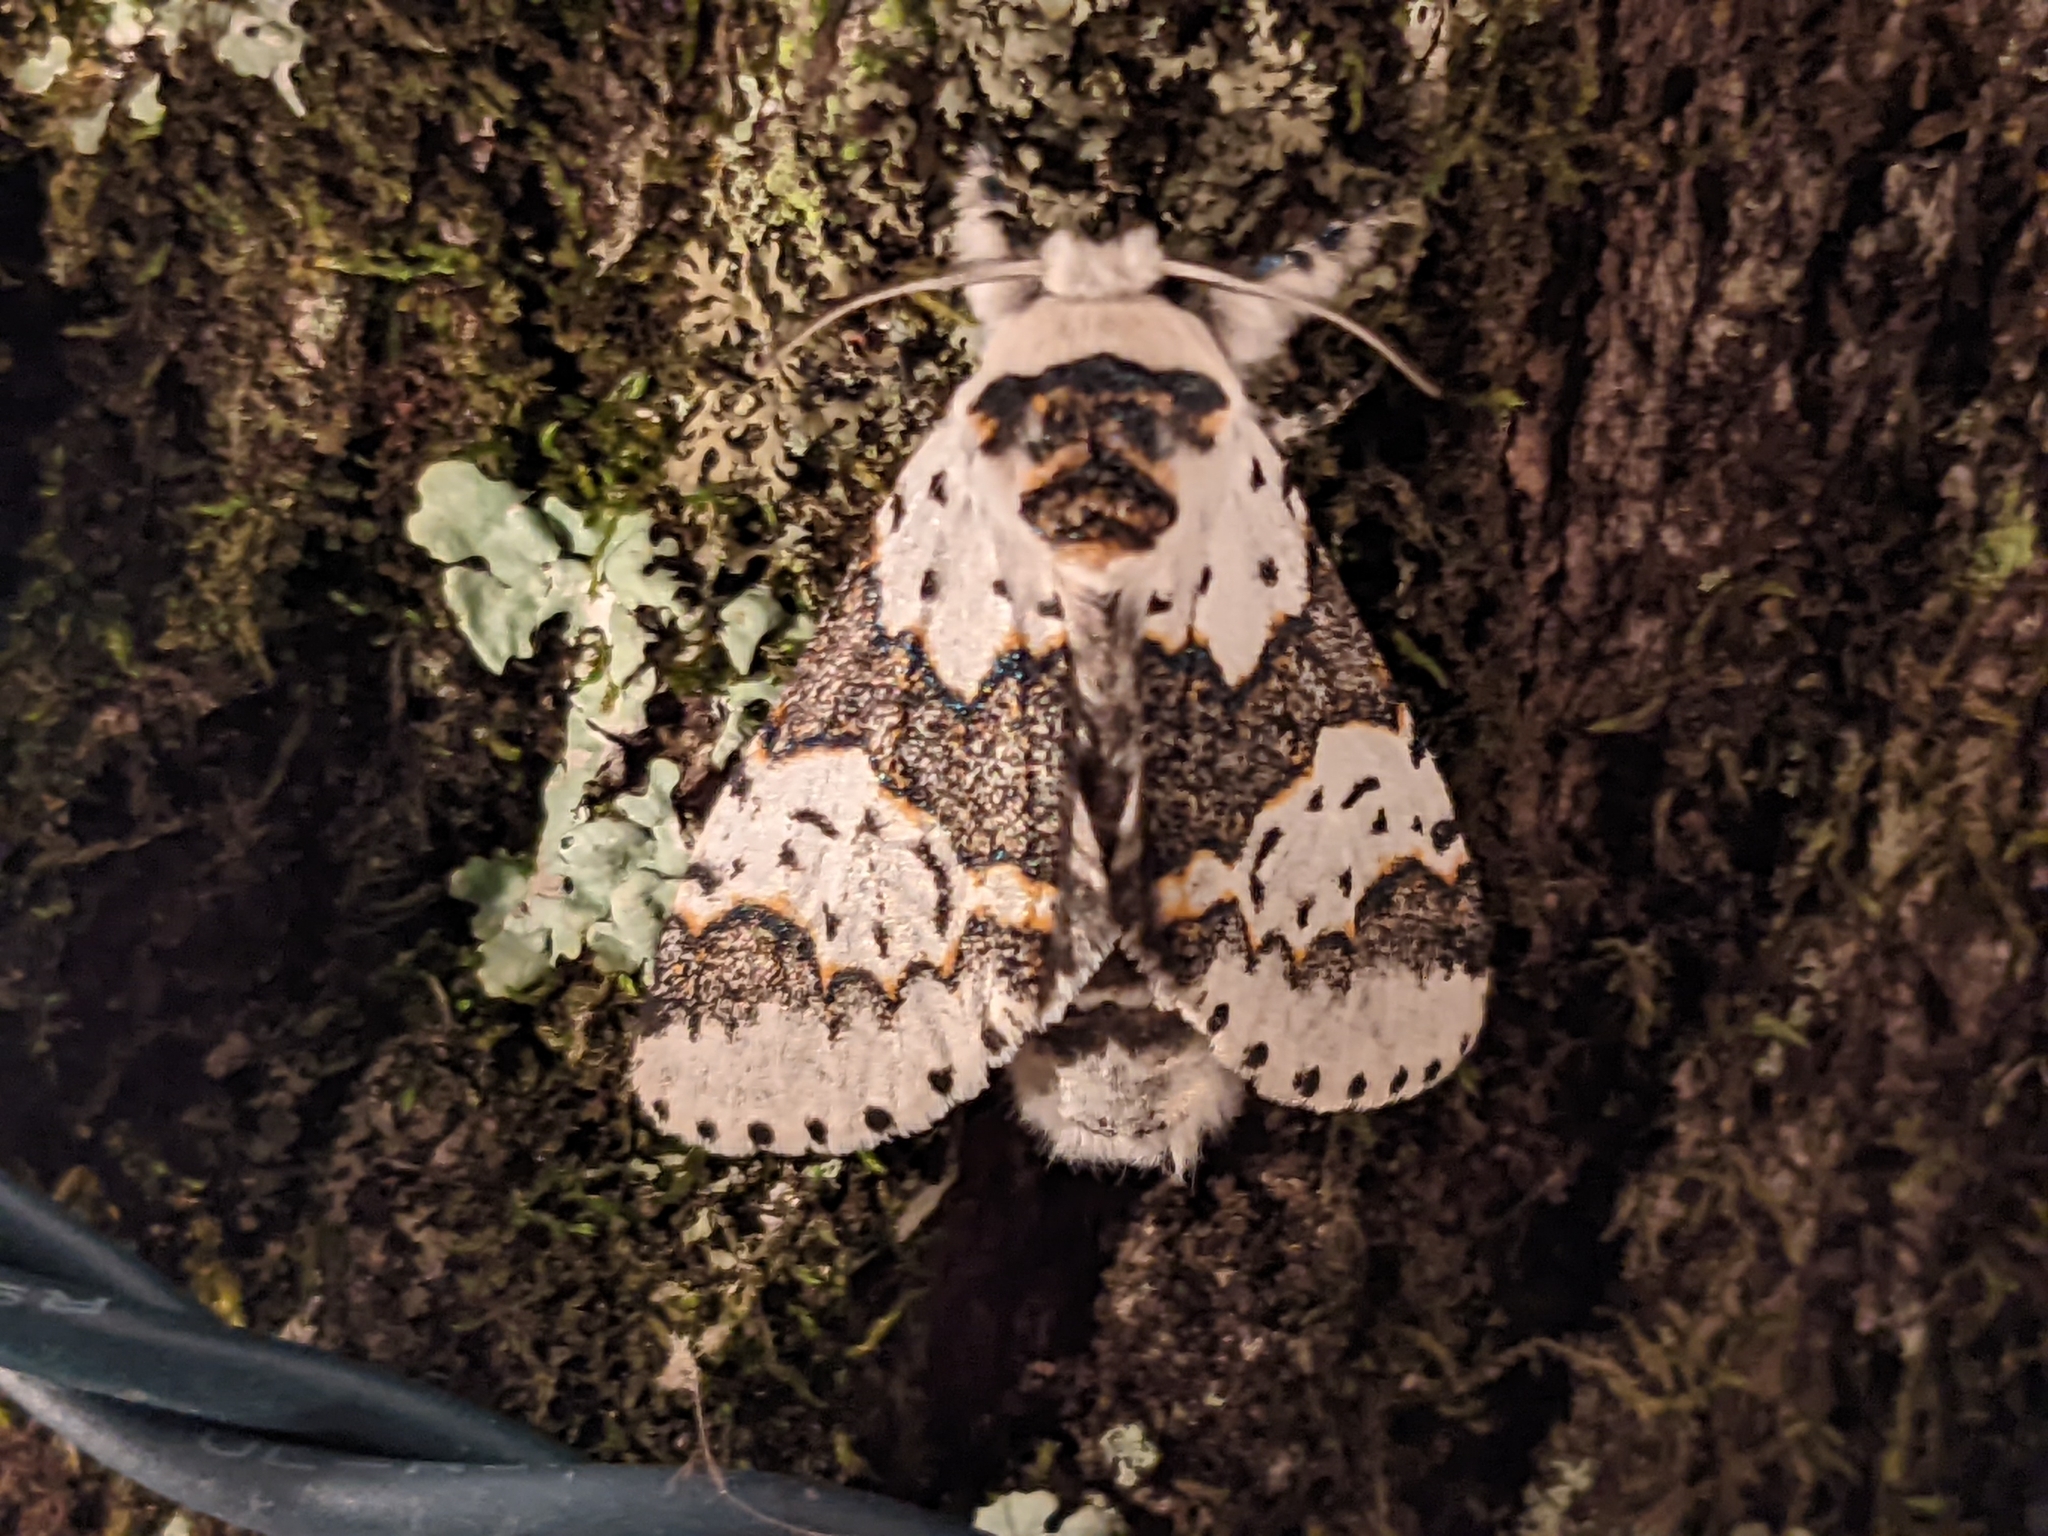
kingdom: Animalia
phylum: Arthropoda
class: Insecta
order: Lepidoptera
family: Notodontidae
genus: Furcula
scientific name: Furcula borealis
